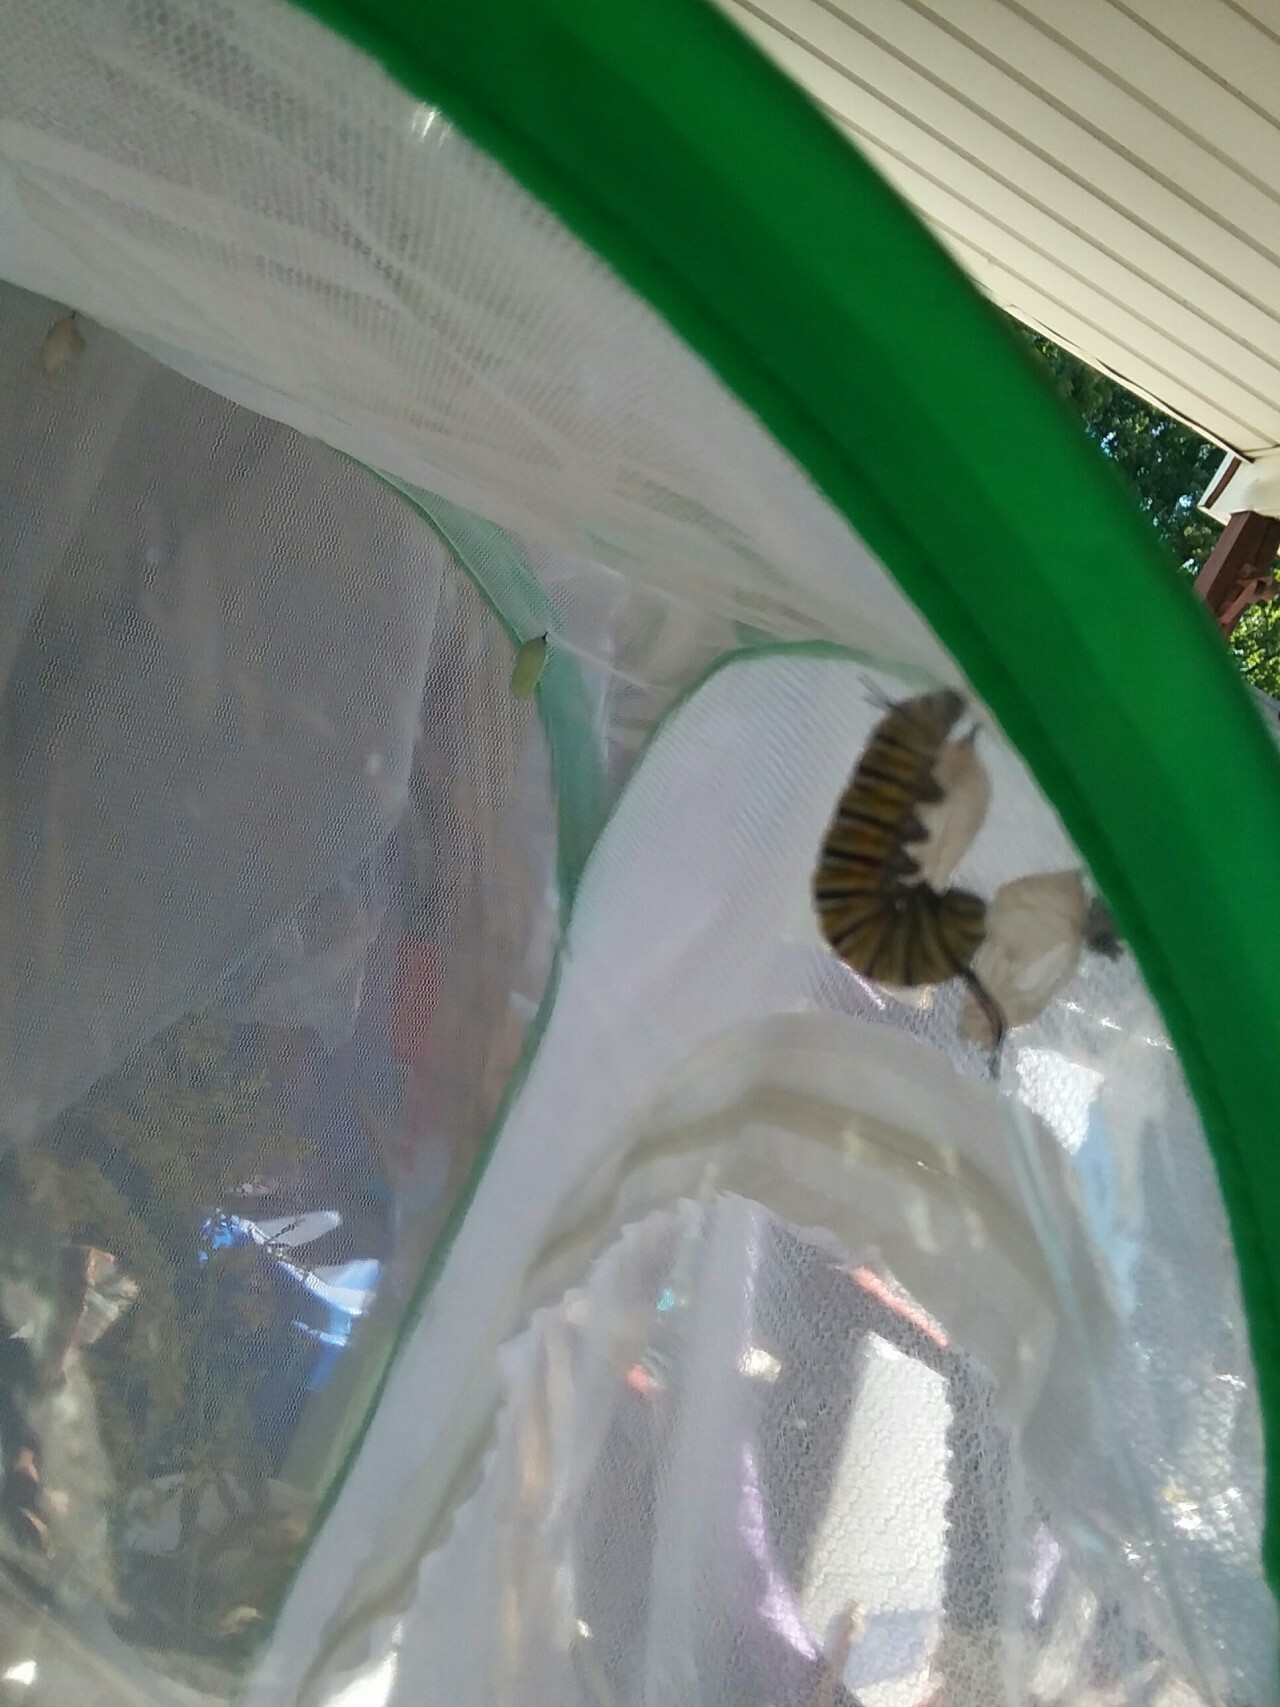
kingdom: Animalia
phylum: Arthropoda
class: Insecta
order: Lepidoptera
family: Nymphalidae
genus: Danaus
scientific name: Danaus plexippus
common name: Monarch
